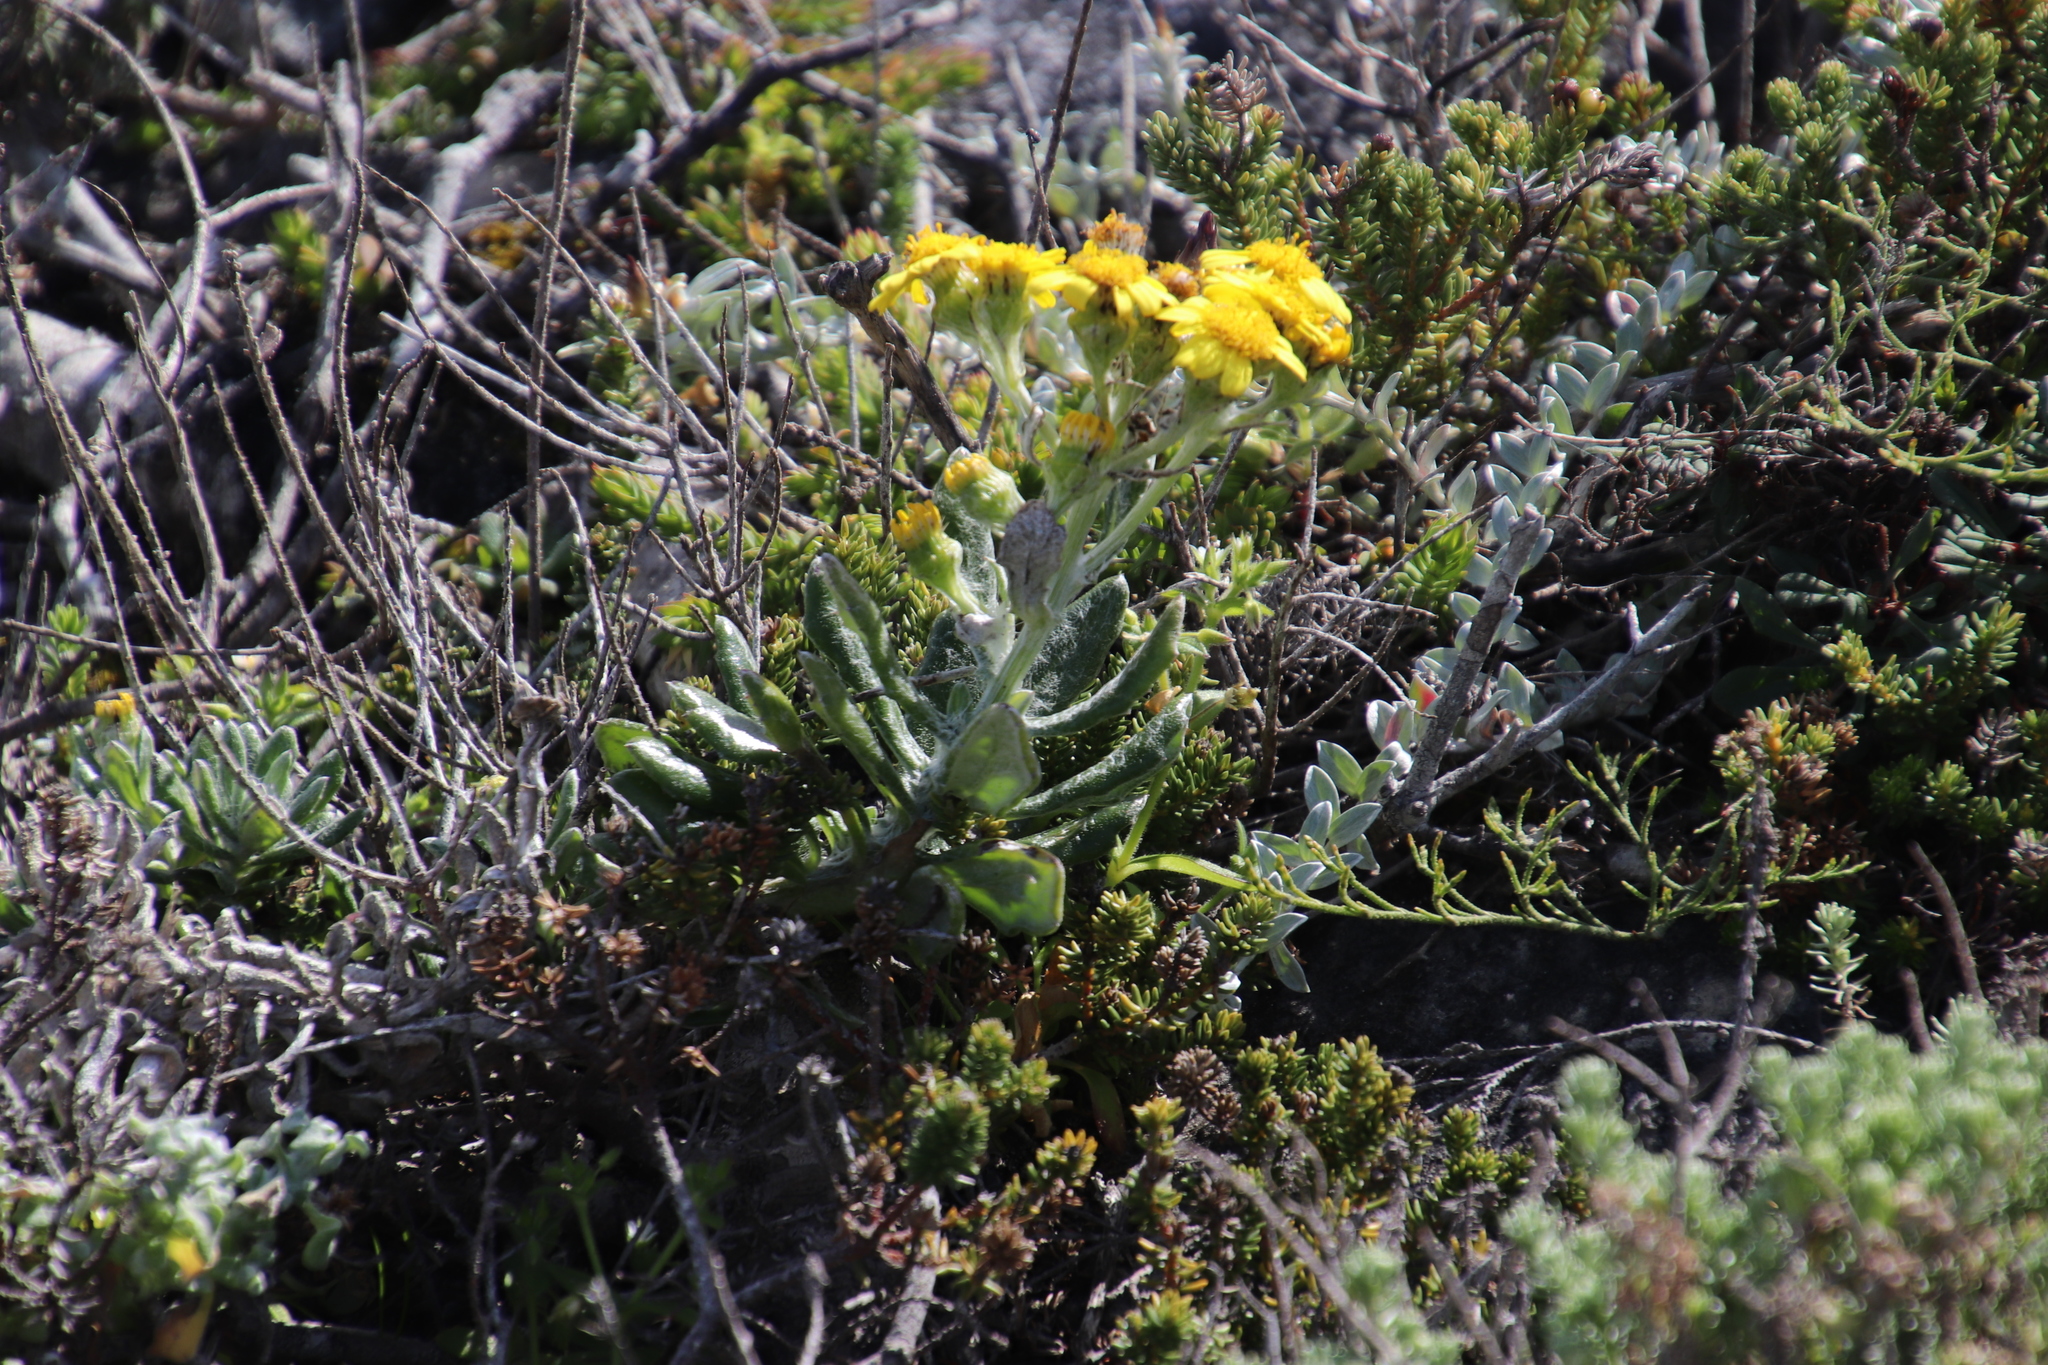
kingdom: Plantae
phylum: Tracheophyta
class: Magnoliopsida
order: Asterales
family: Asteraceae
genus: Senecio
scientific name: Senecio arniciflorus
